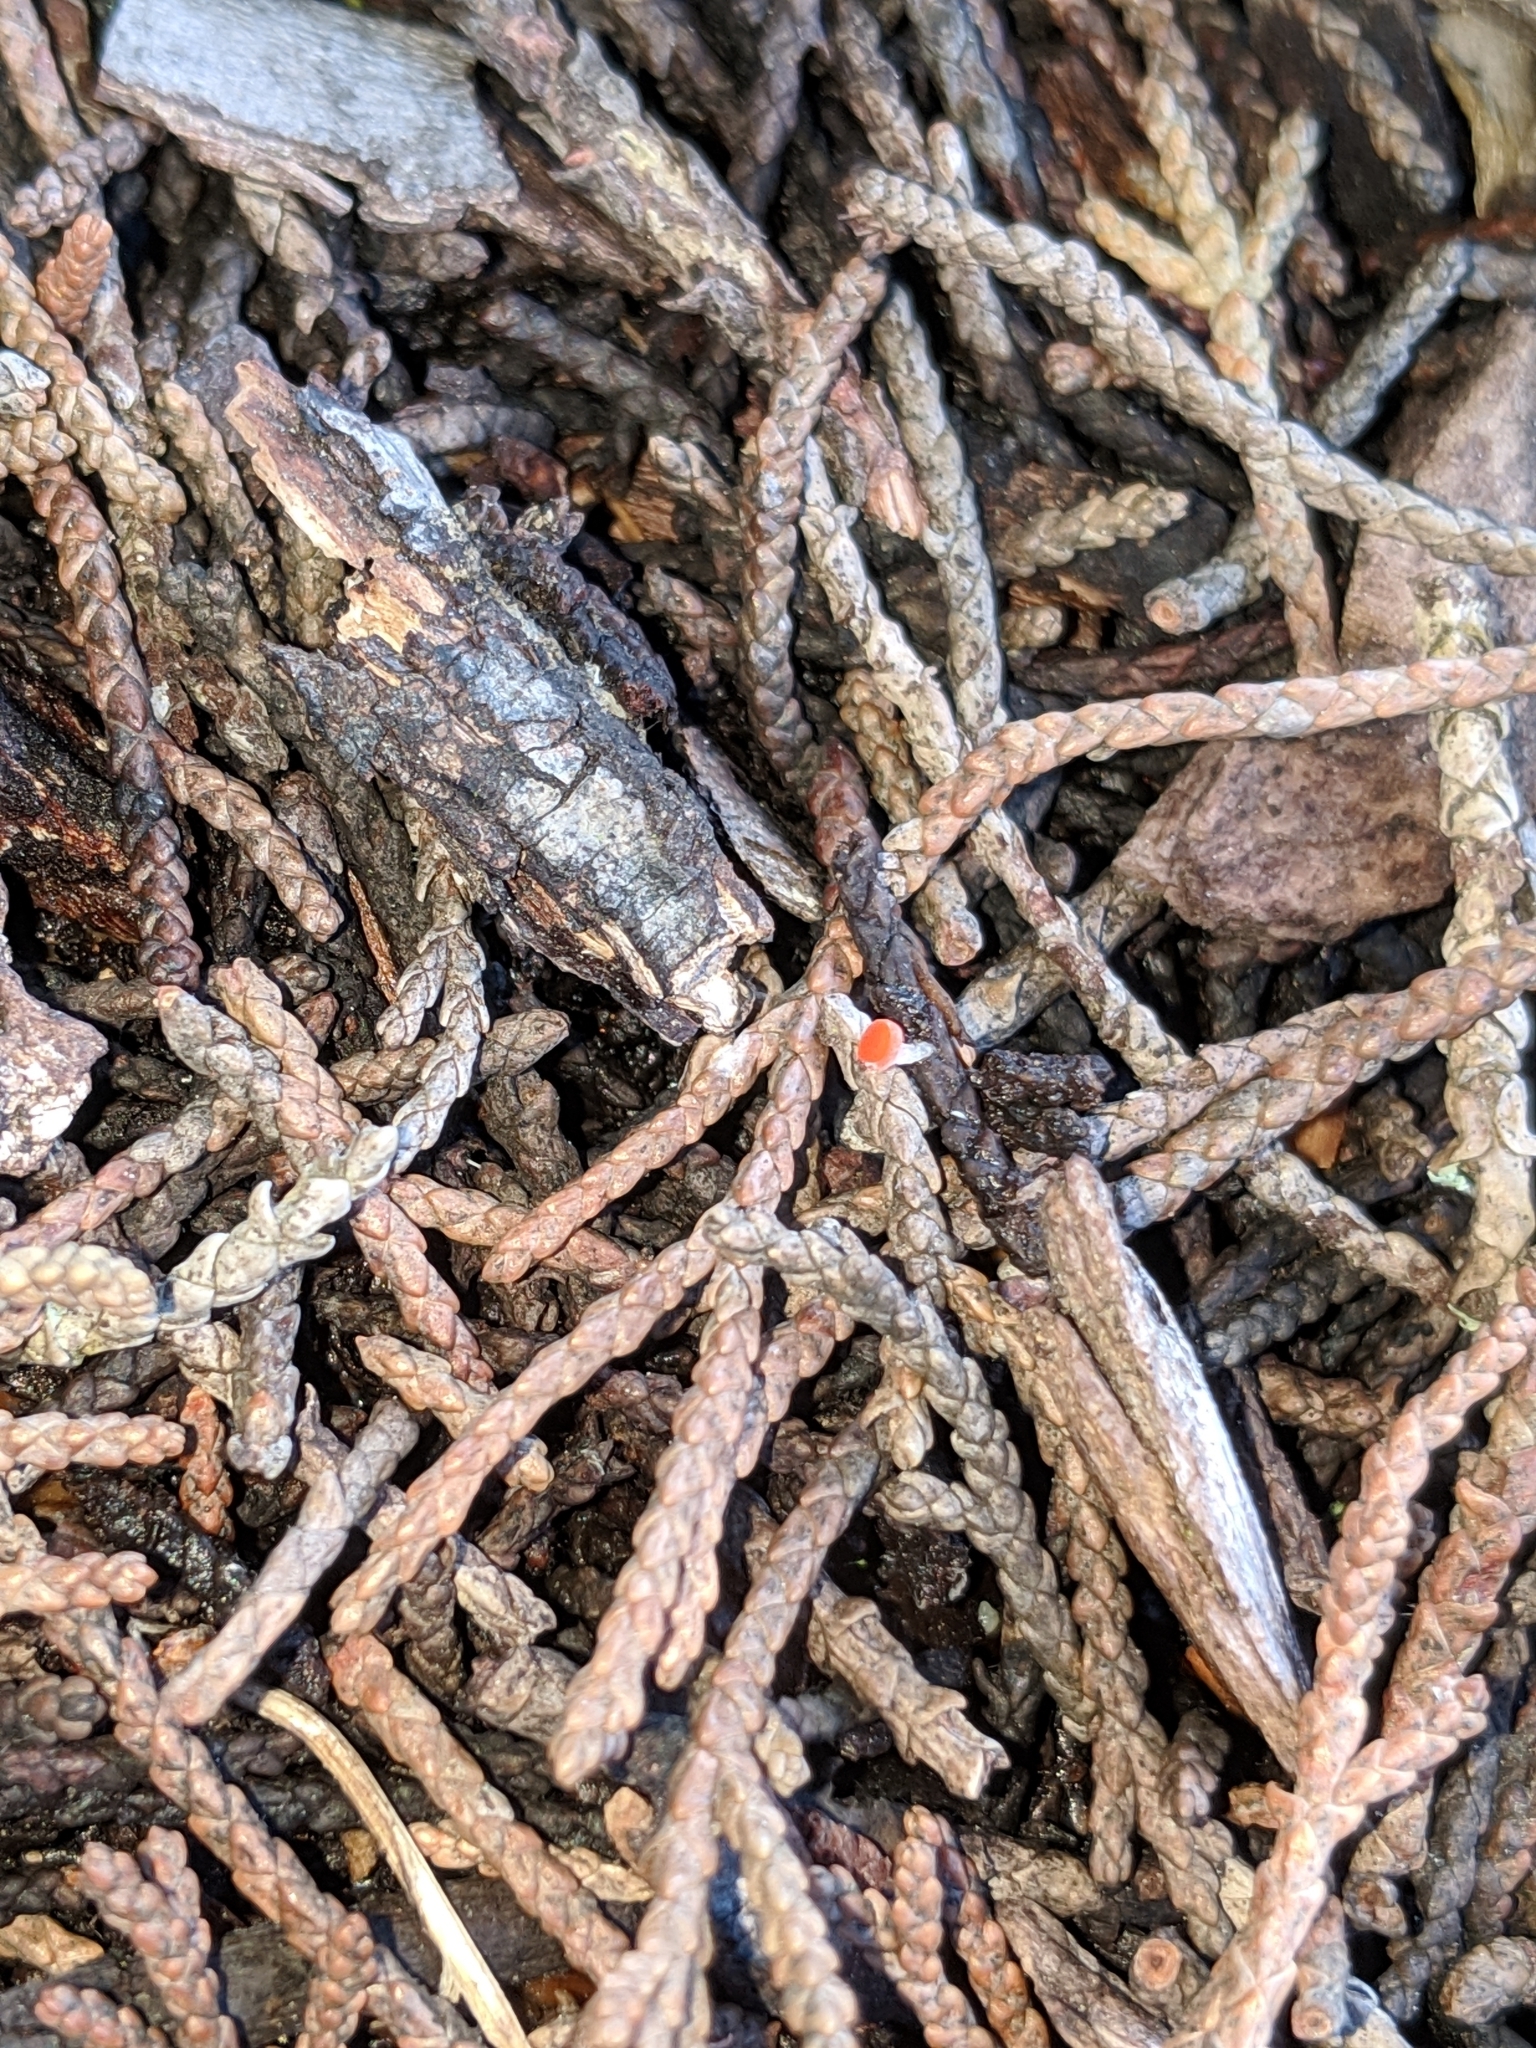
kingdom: Fungi
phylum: Ascomycota
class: Pezizomycetes
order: Pezizales
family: Sarcoscyphaceae
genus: Pseudopithyella
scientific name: Pseudopithyella minuscula
